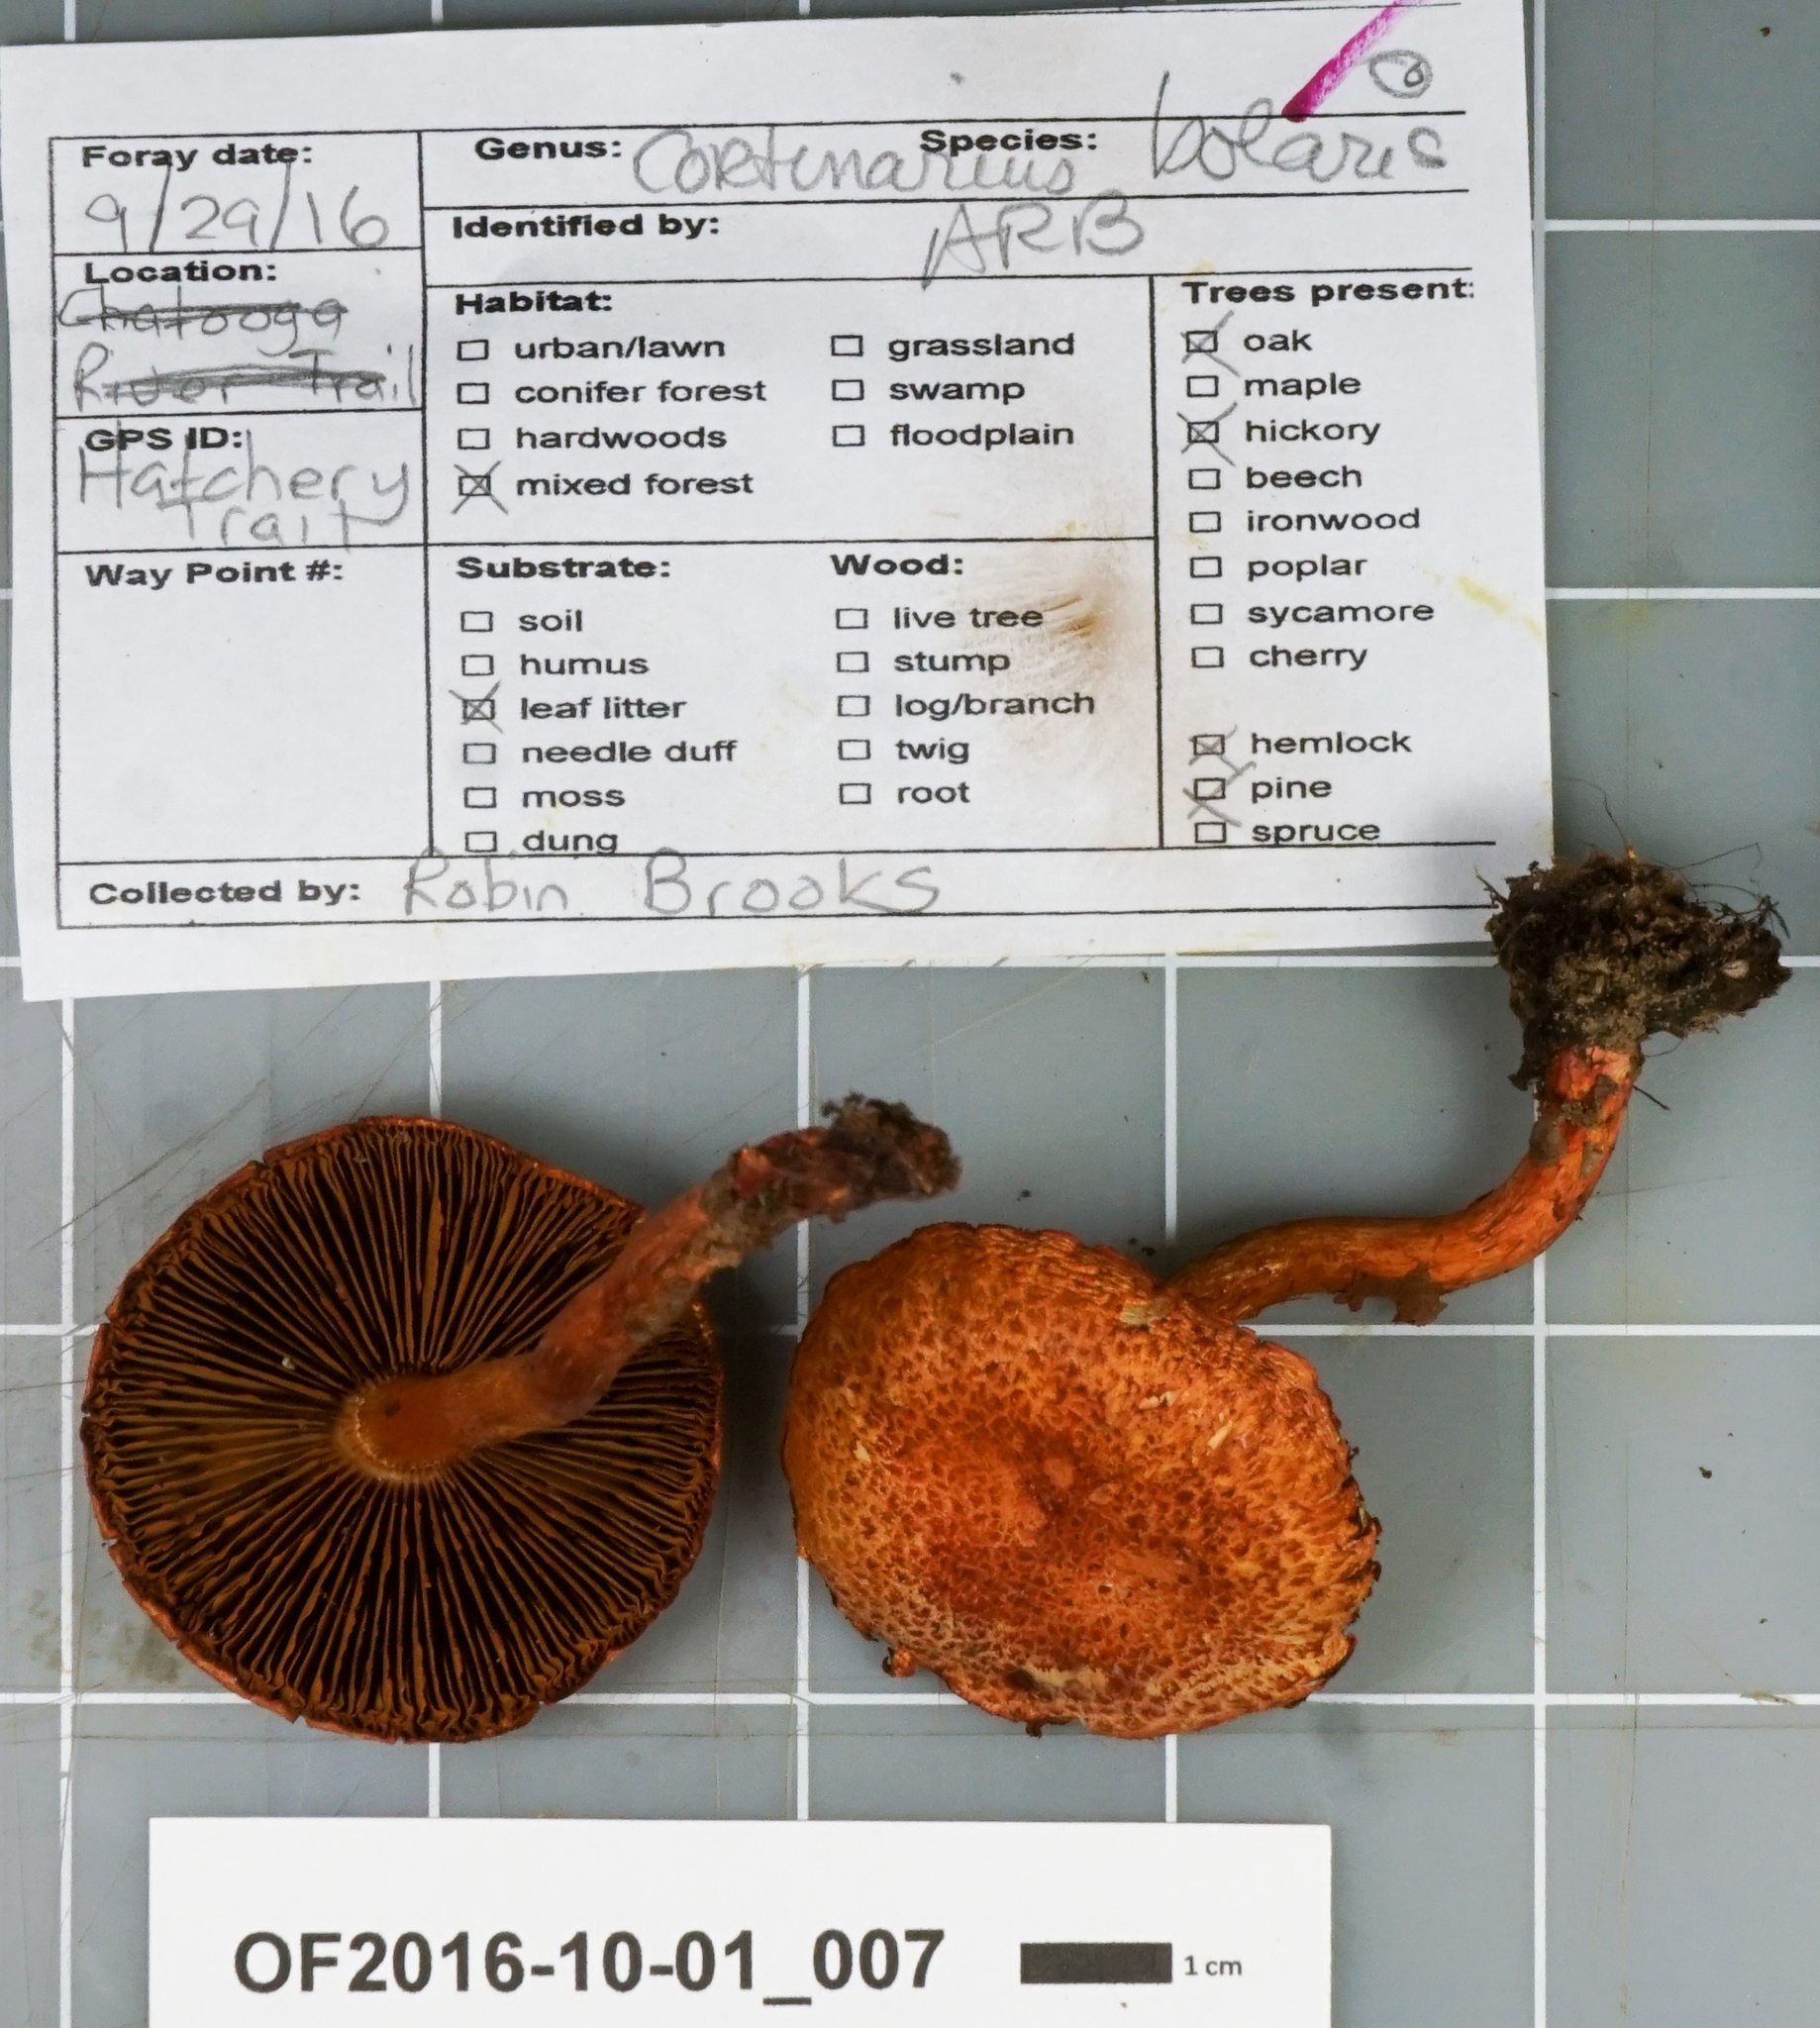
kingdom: Fungi
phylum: Basidiomycota
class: Agaricomycetes
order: Agaricales
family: Cortinariaceae
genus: Cortinarius
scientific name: Cortinarius bolaris
